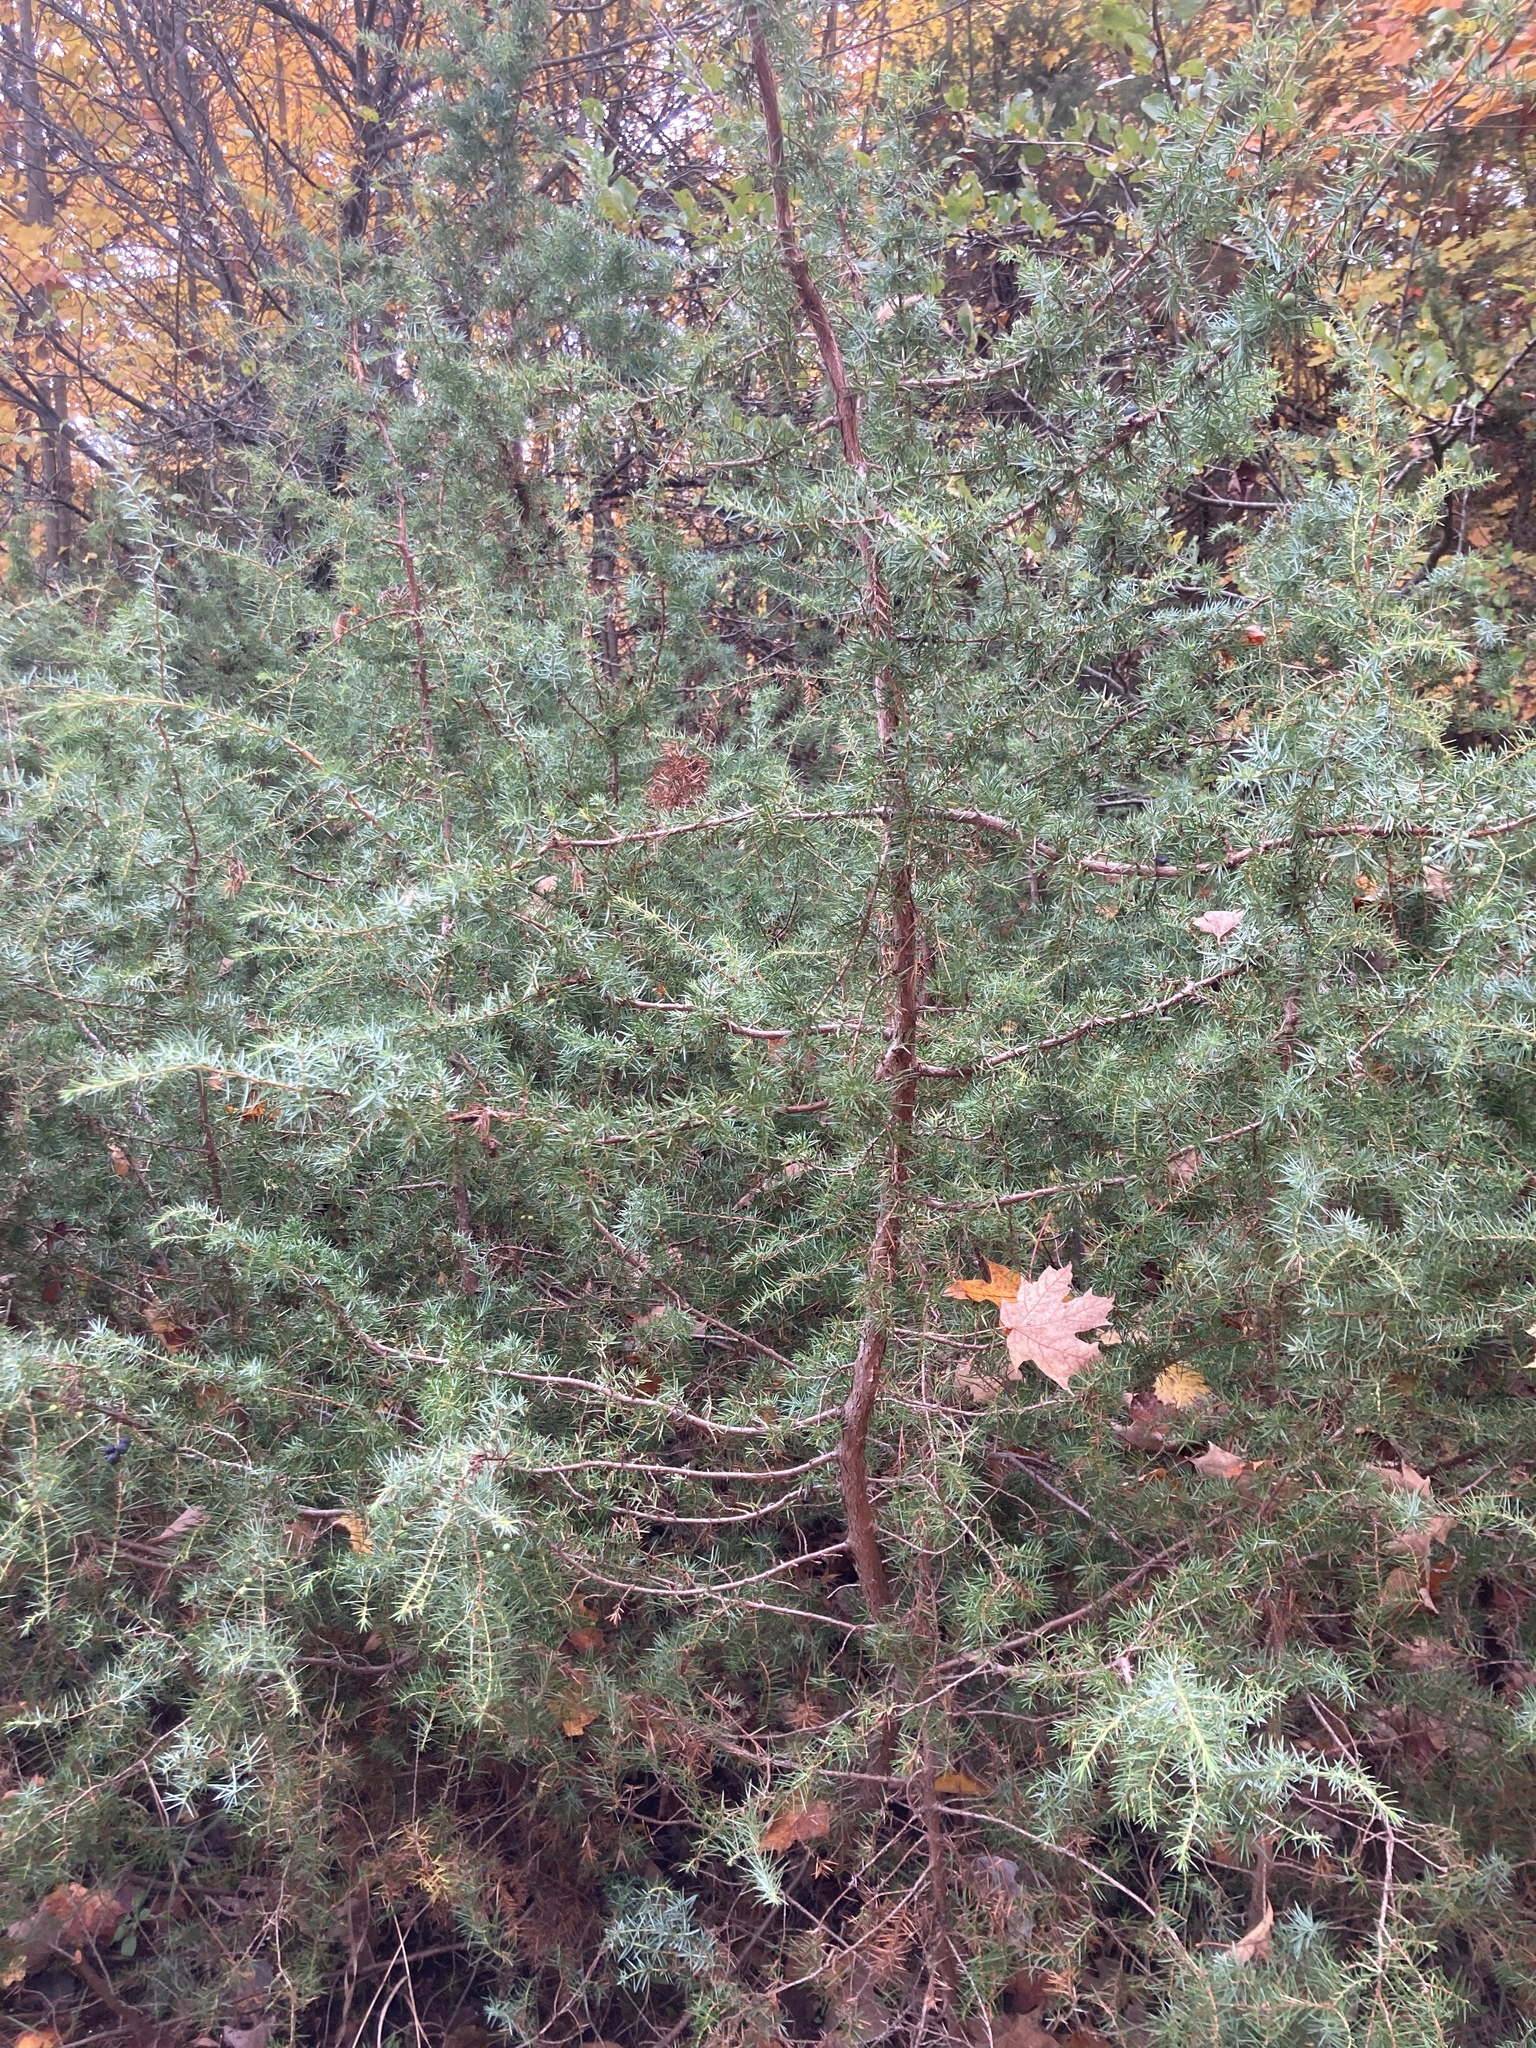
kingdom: Plantae
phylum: Tracheophyta
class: Pinopsida
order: Pinales
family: Cupressaceae
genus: Juniperus
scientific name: Juniperus communis
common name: Common juniper
